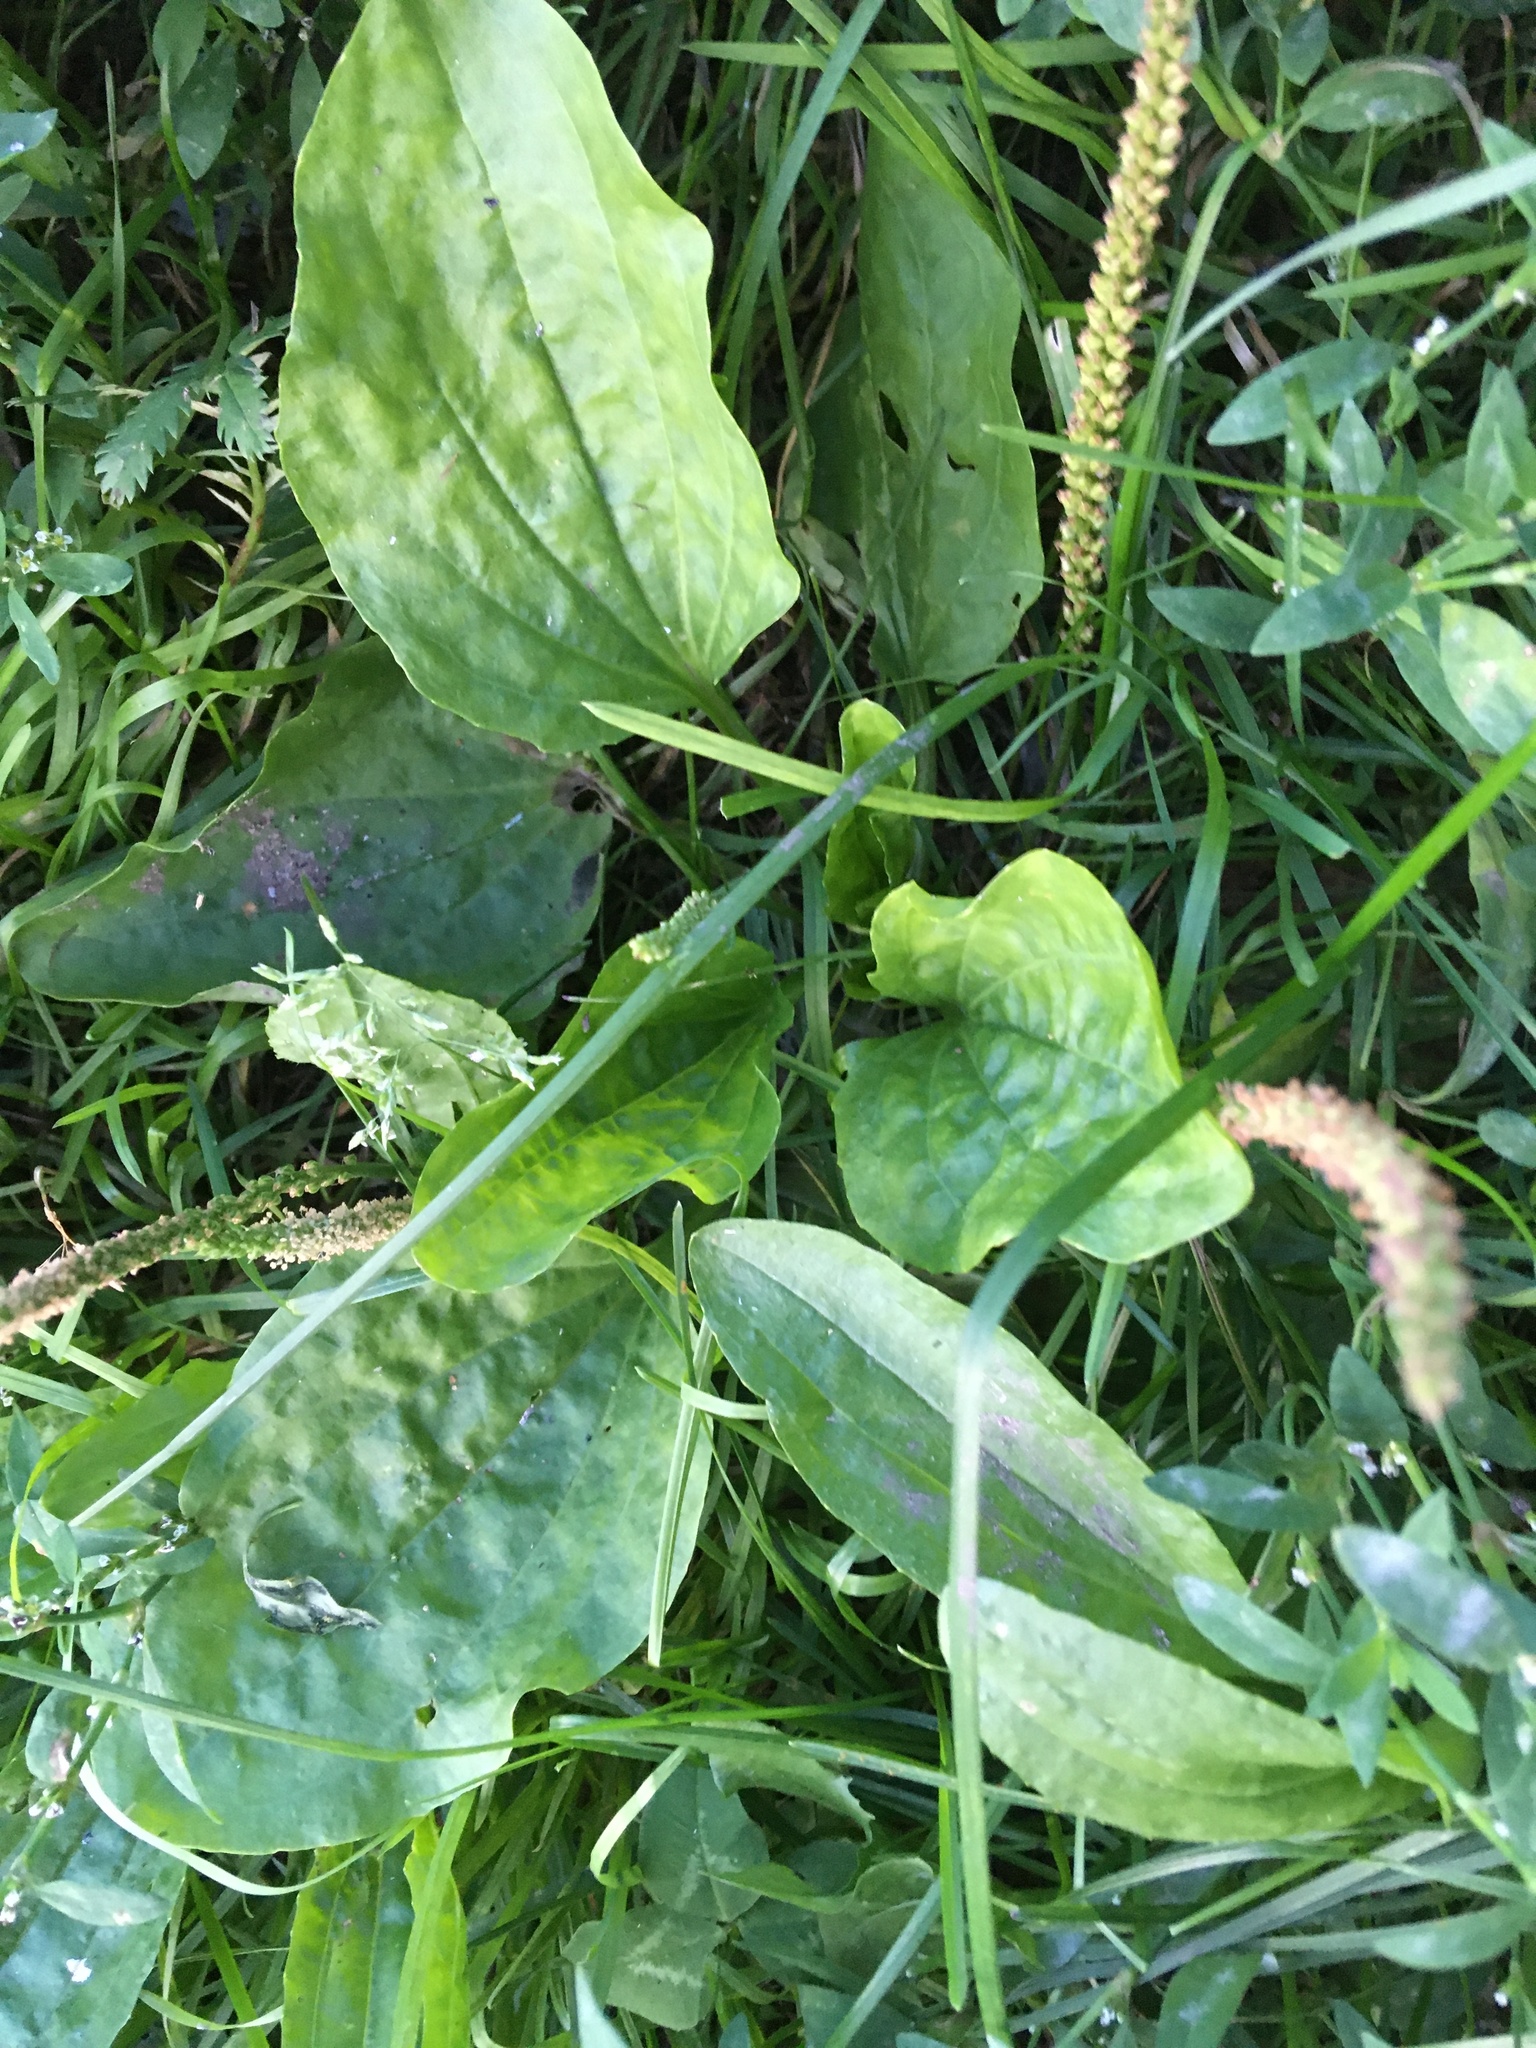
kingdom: Plantae
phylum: Tracheophyta
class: Magnoliopsida
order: Lamiales
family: Plantaginaceae
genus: Plantago
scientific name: Plantago major
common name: Common plantain
